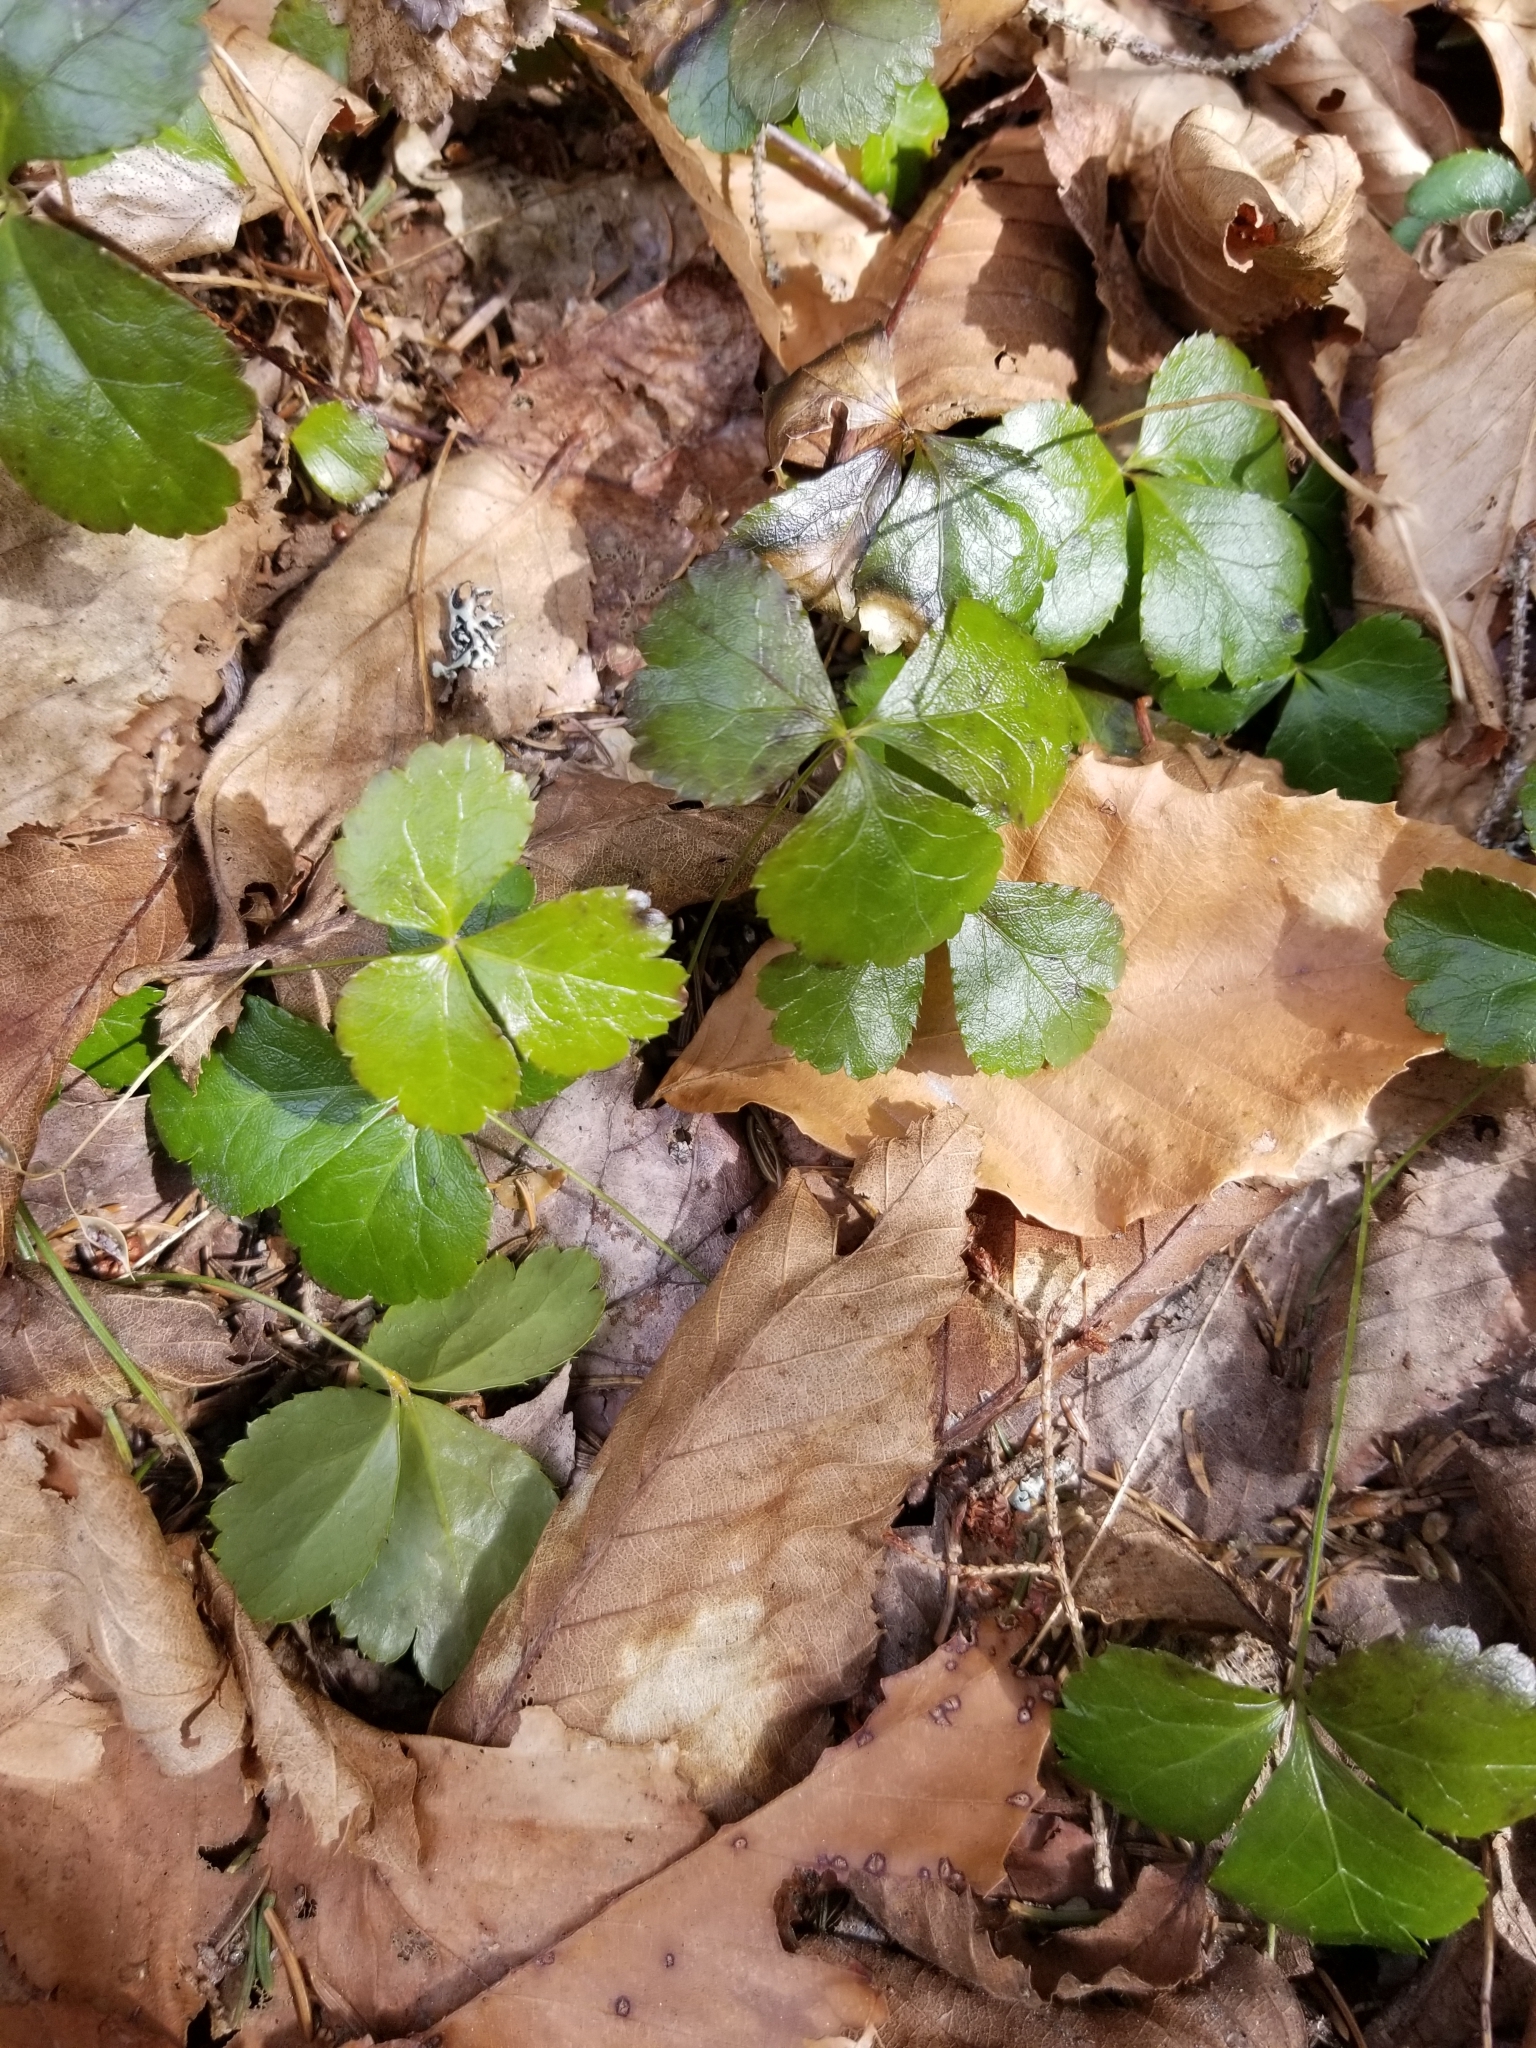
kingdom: Plantae
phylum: Tracheophyta
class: Magnoliopsida
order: Ranunculales
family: Ranunculaceae
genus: Coptis
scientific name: Coptis trifolia
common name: Canker-root
